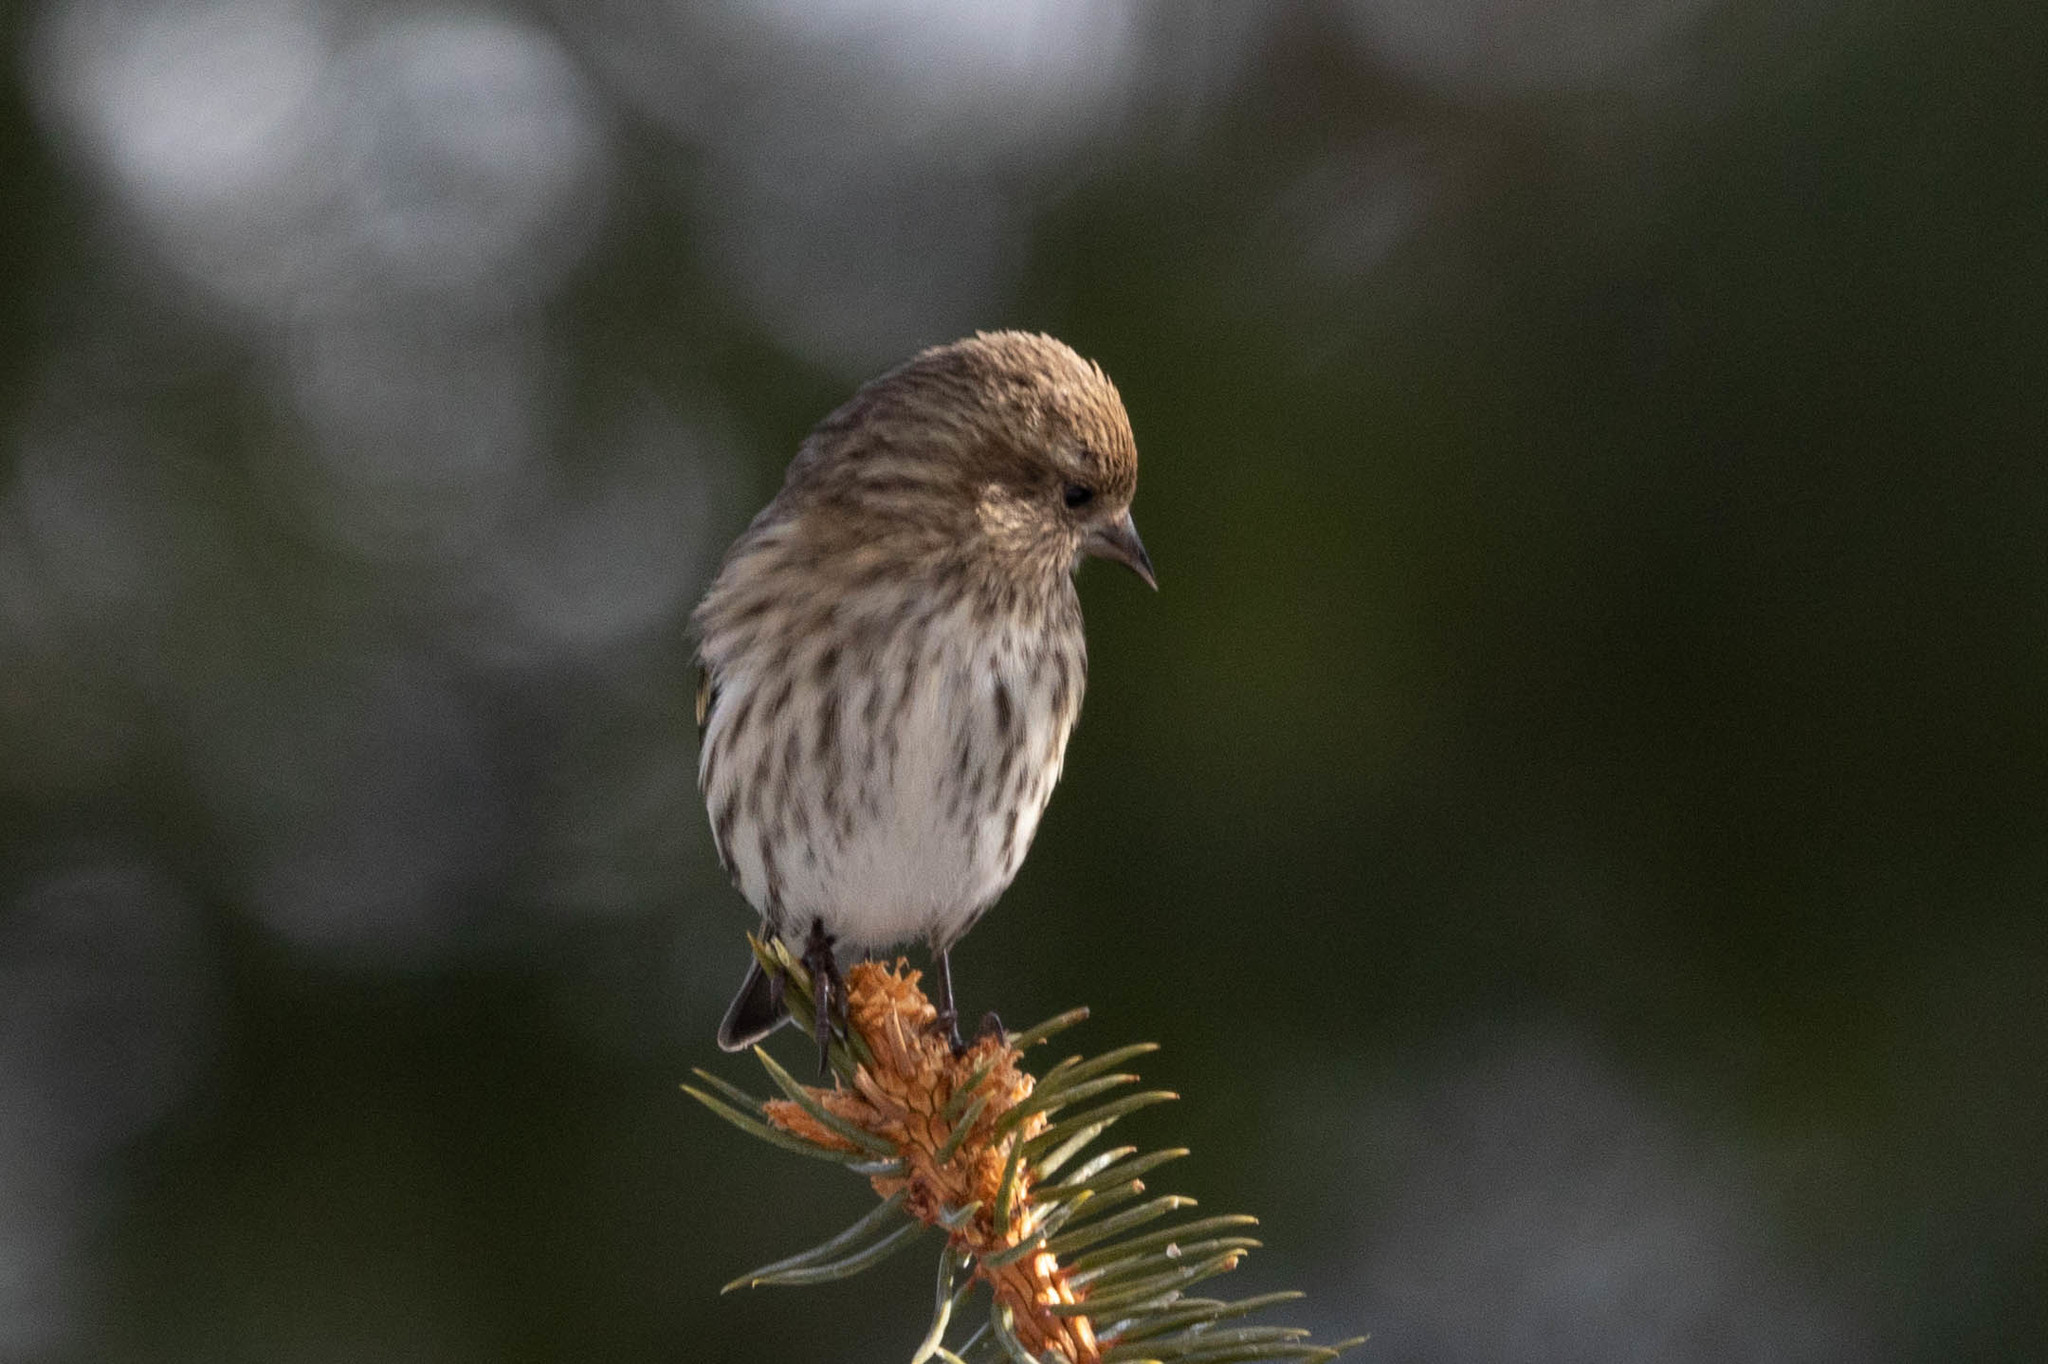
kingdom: Animalia
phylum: Chordata
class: Aves
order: Passeriformes
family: Fringillidae
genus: Spinus
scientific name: Spinus pinus
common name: Pine siskin
